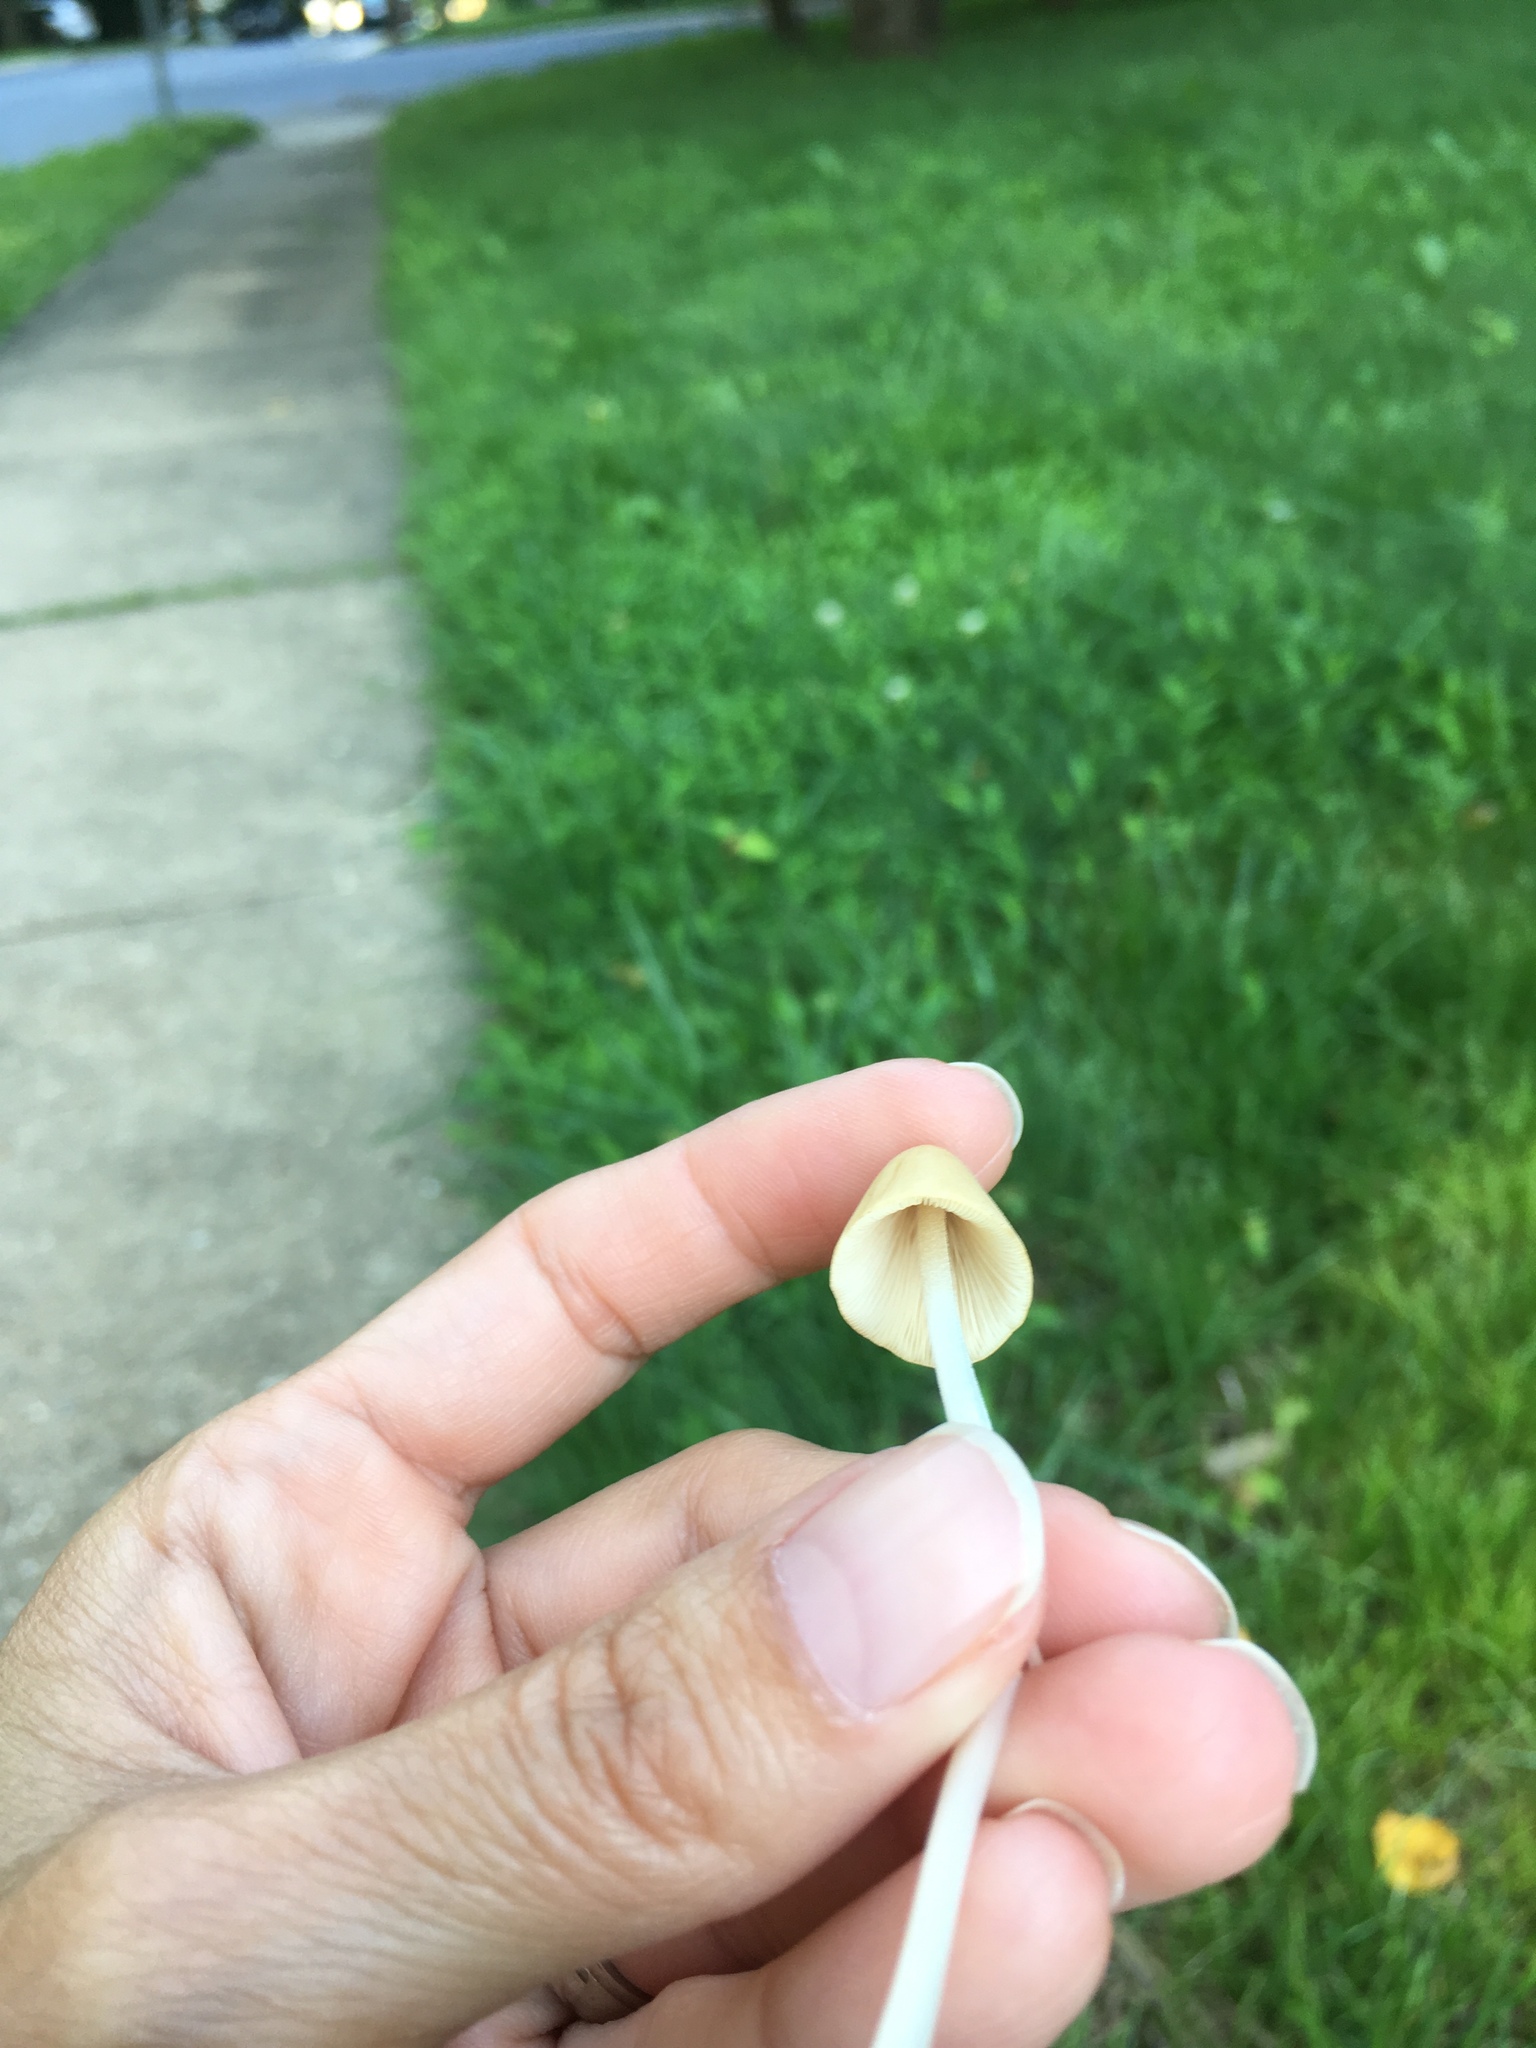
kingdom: Fungi
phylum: Basidiomycota
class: Agaricomycetes
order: Agaricales
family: Bolbitiaceae
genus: Conocybe
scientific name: Conocybe apala
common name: Milky conecap
